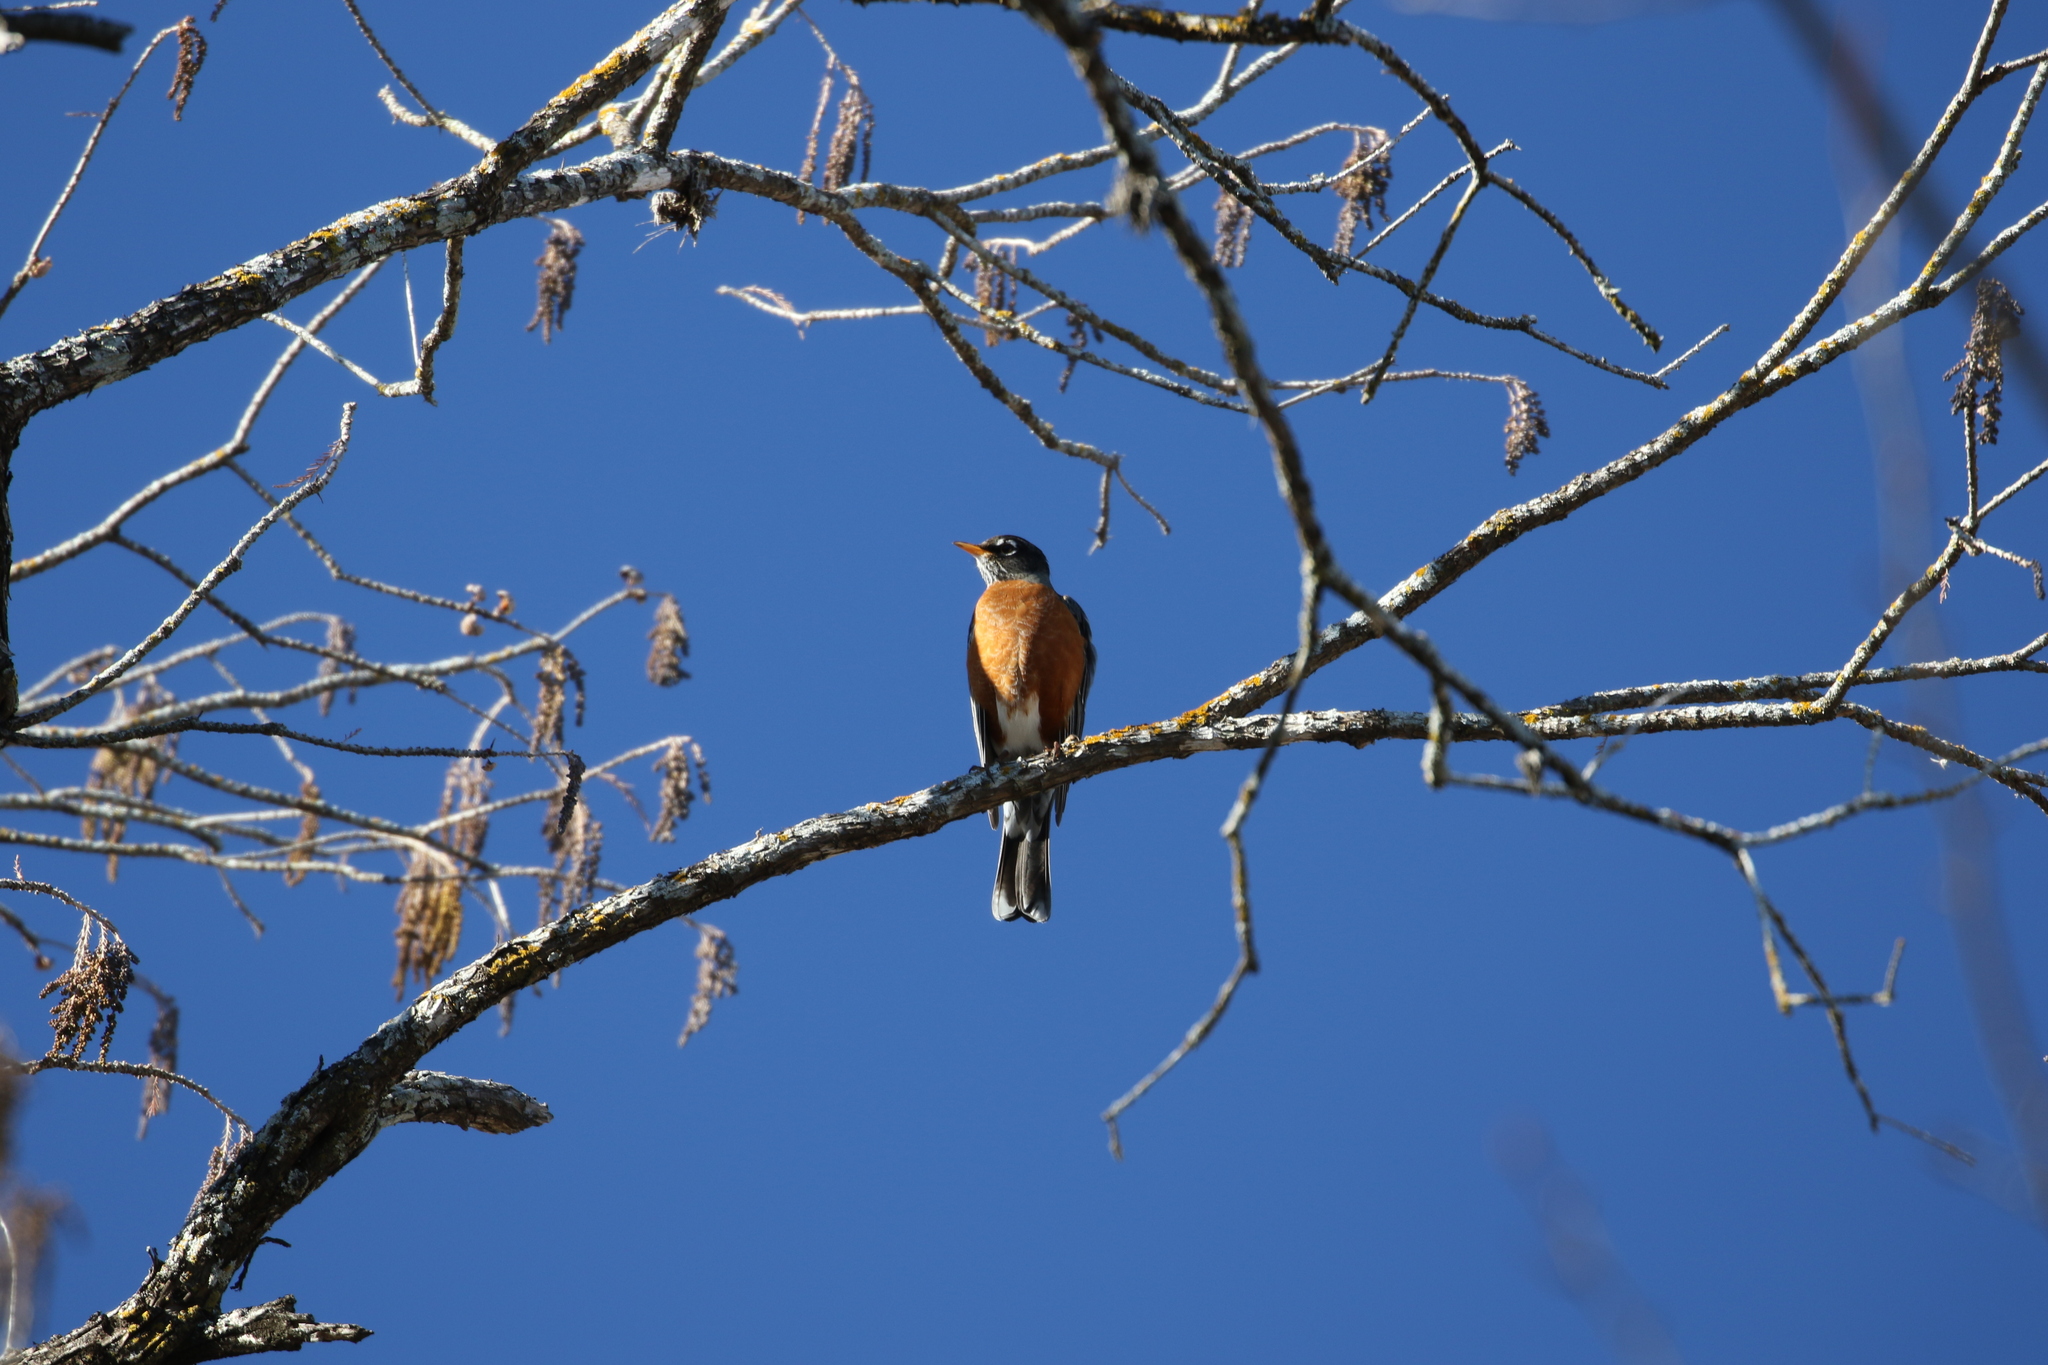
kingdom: Animalia
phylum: Chordata
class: Aves
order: Passeriformes
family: Turdidae
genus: Turdus
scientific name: Turdus migratorius
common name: American robin
